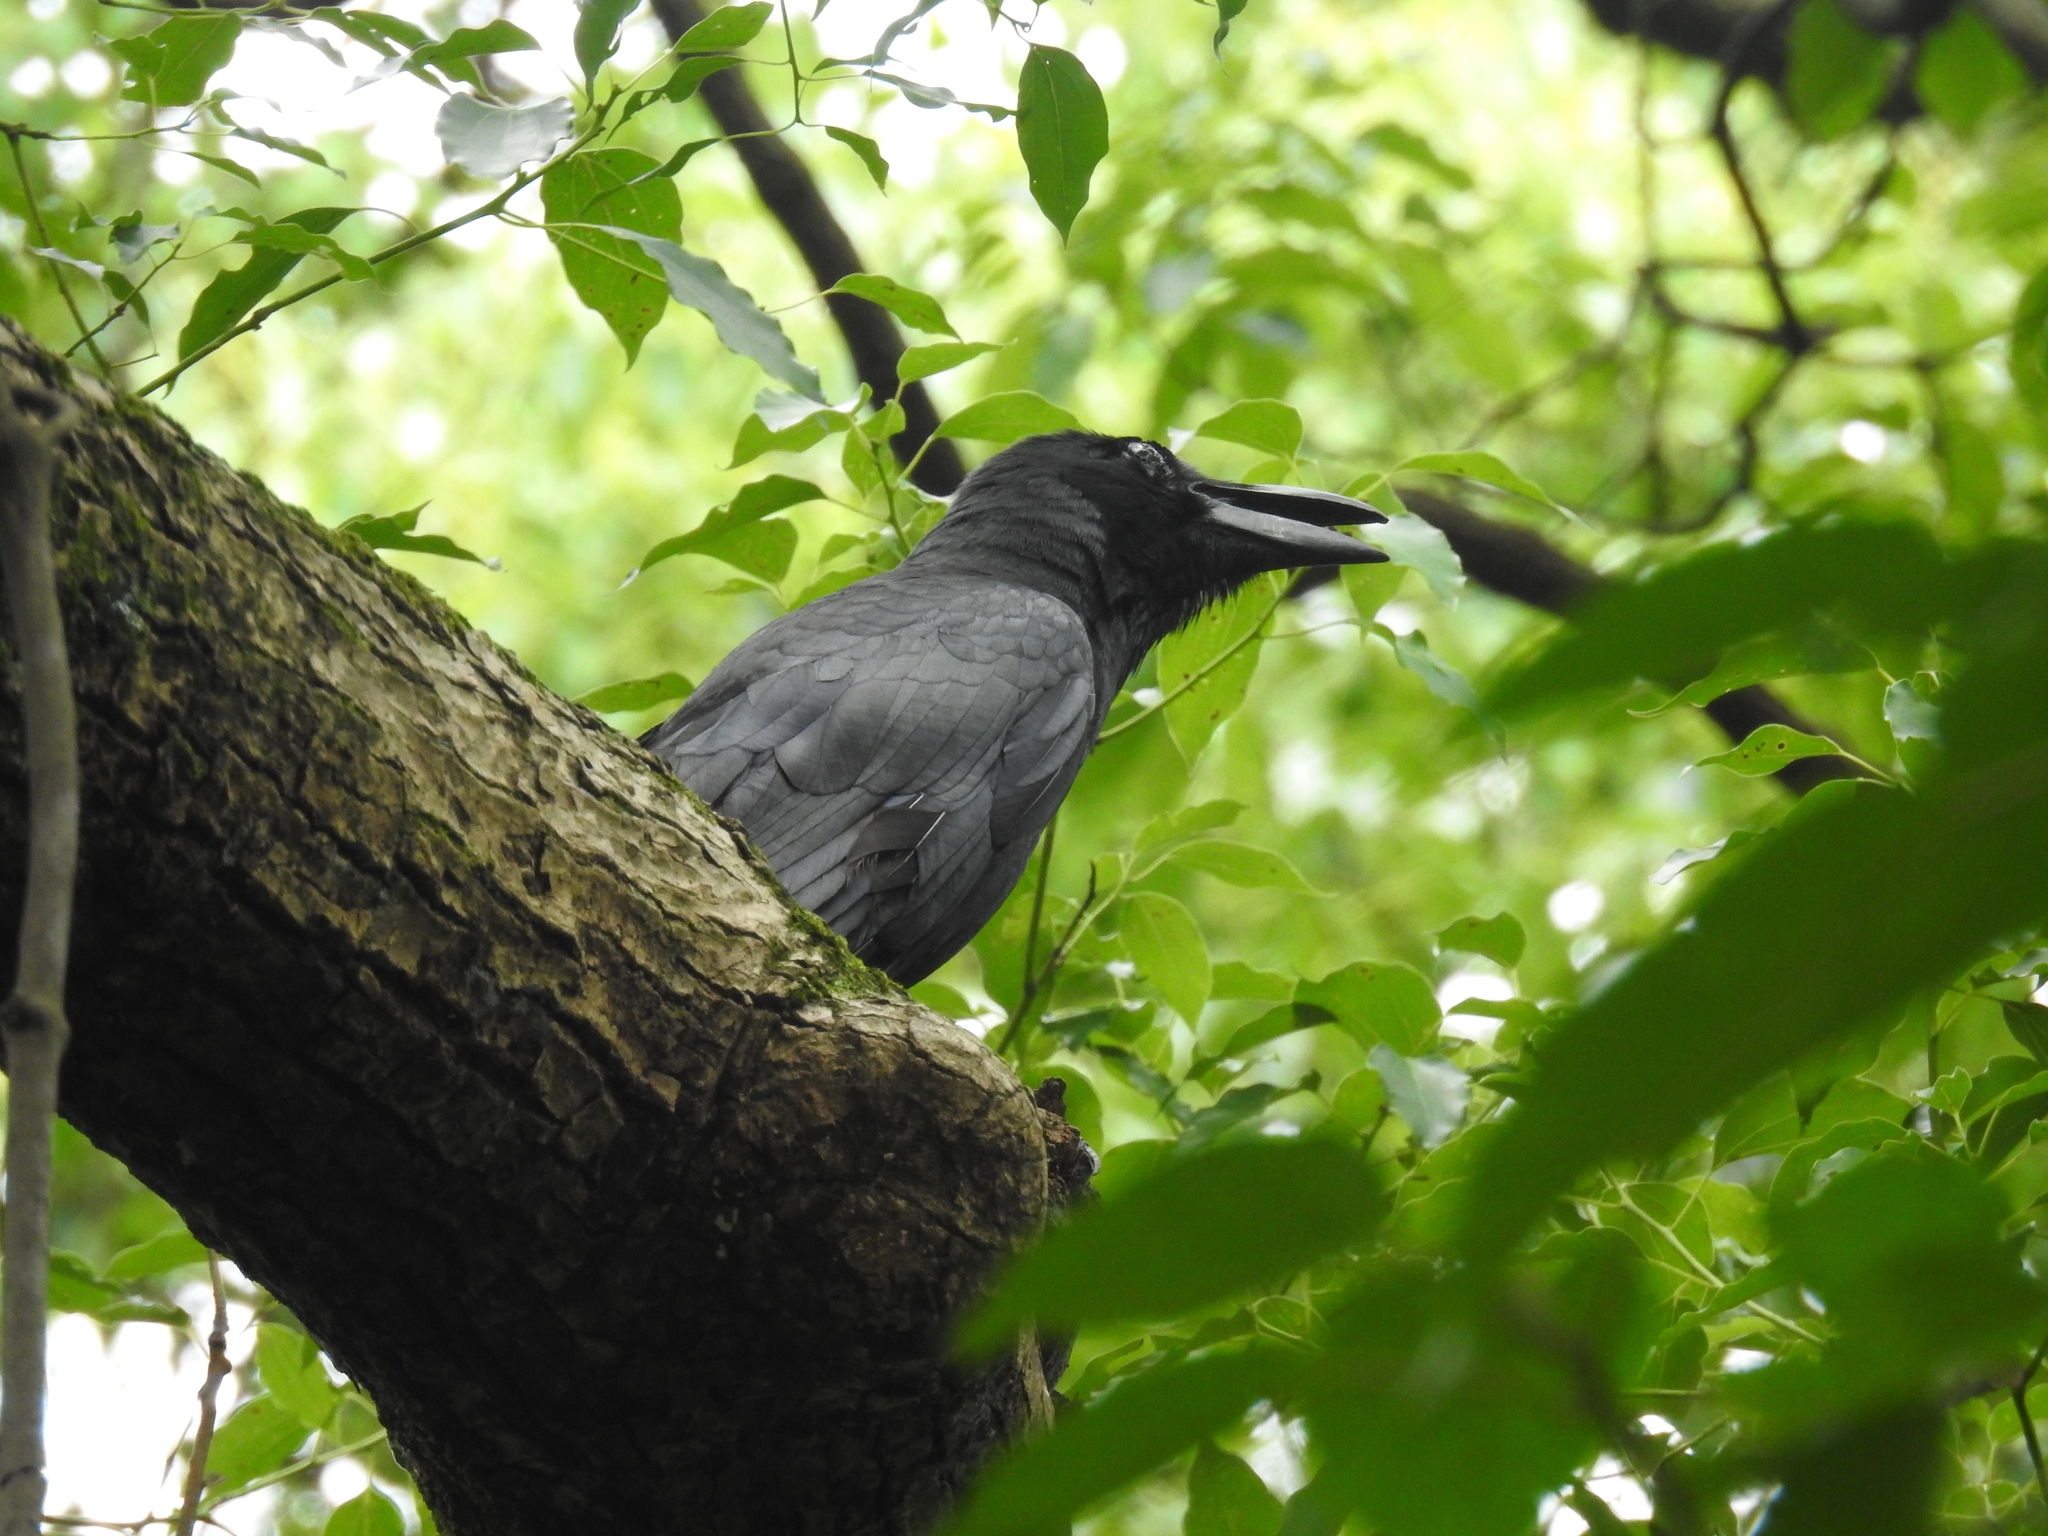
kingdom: Animalia
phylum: Chordata
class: Aves
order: Passeriformes
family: Corvidae
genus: Corvus
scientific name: Corvus macrorhynchos
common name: Large-billed crow
